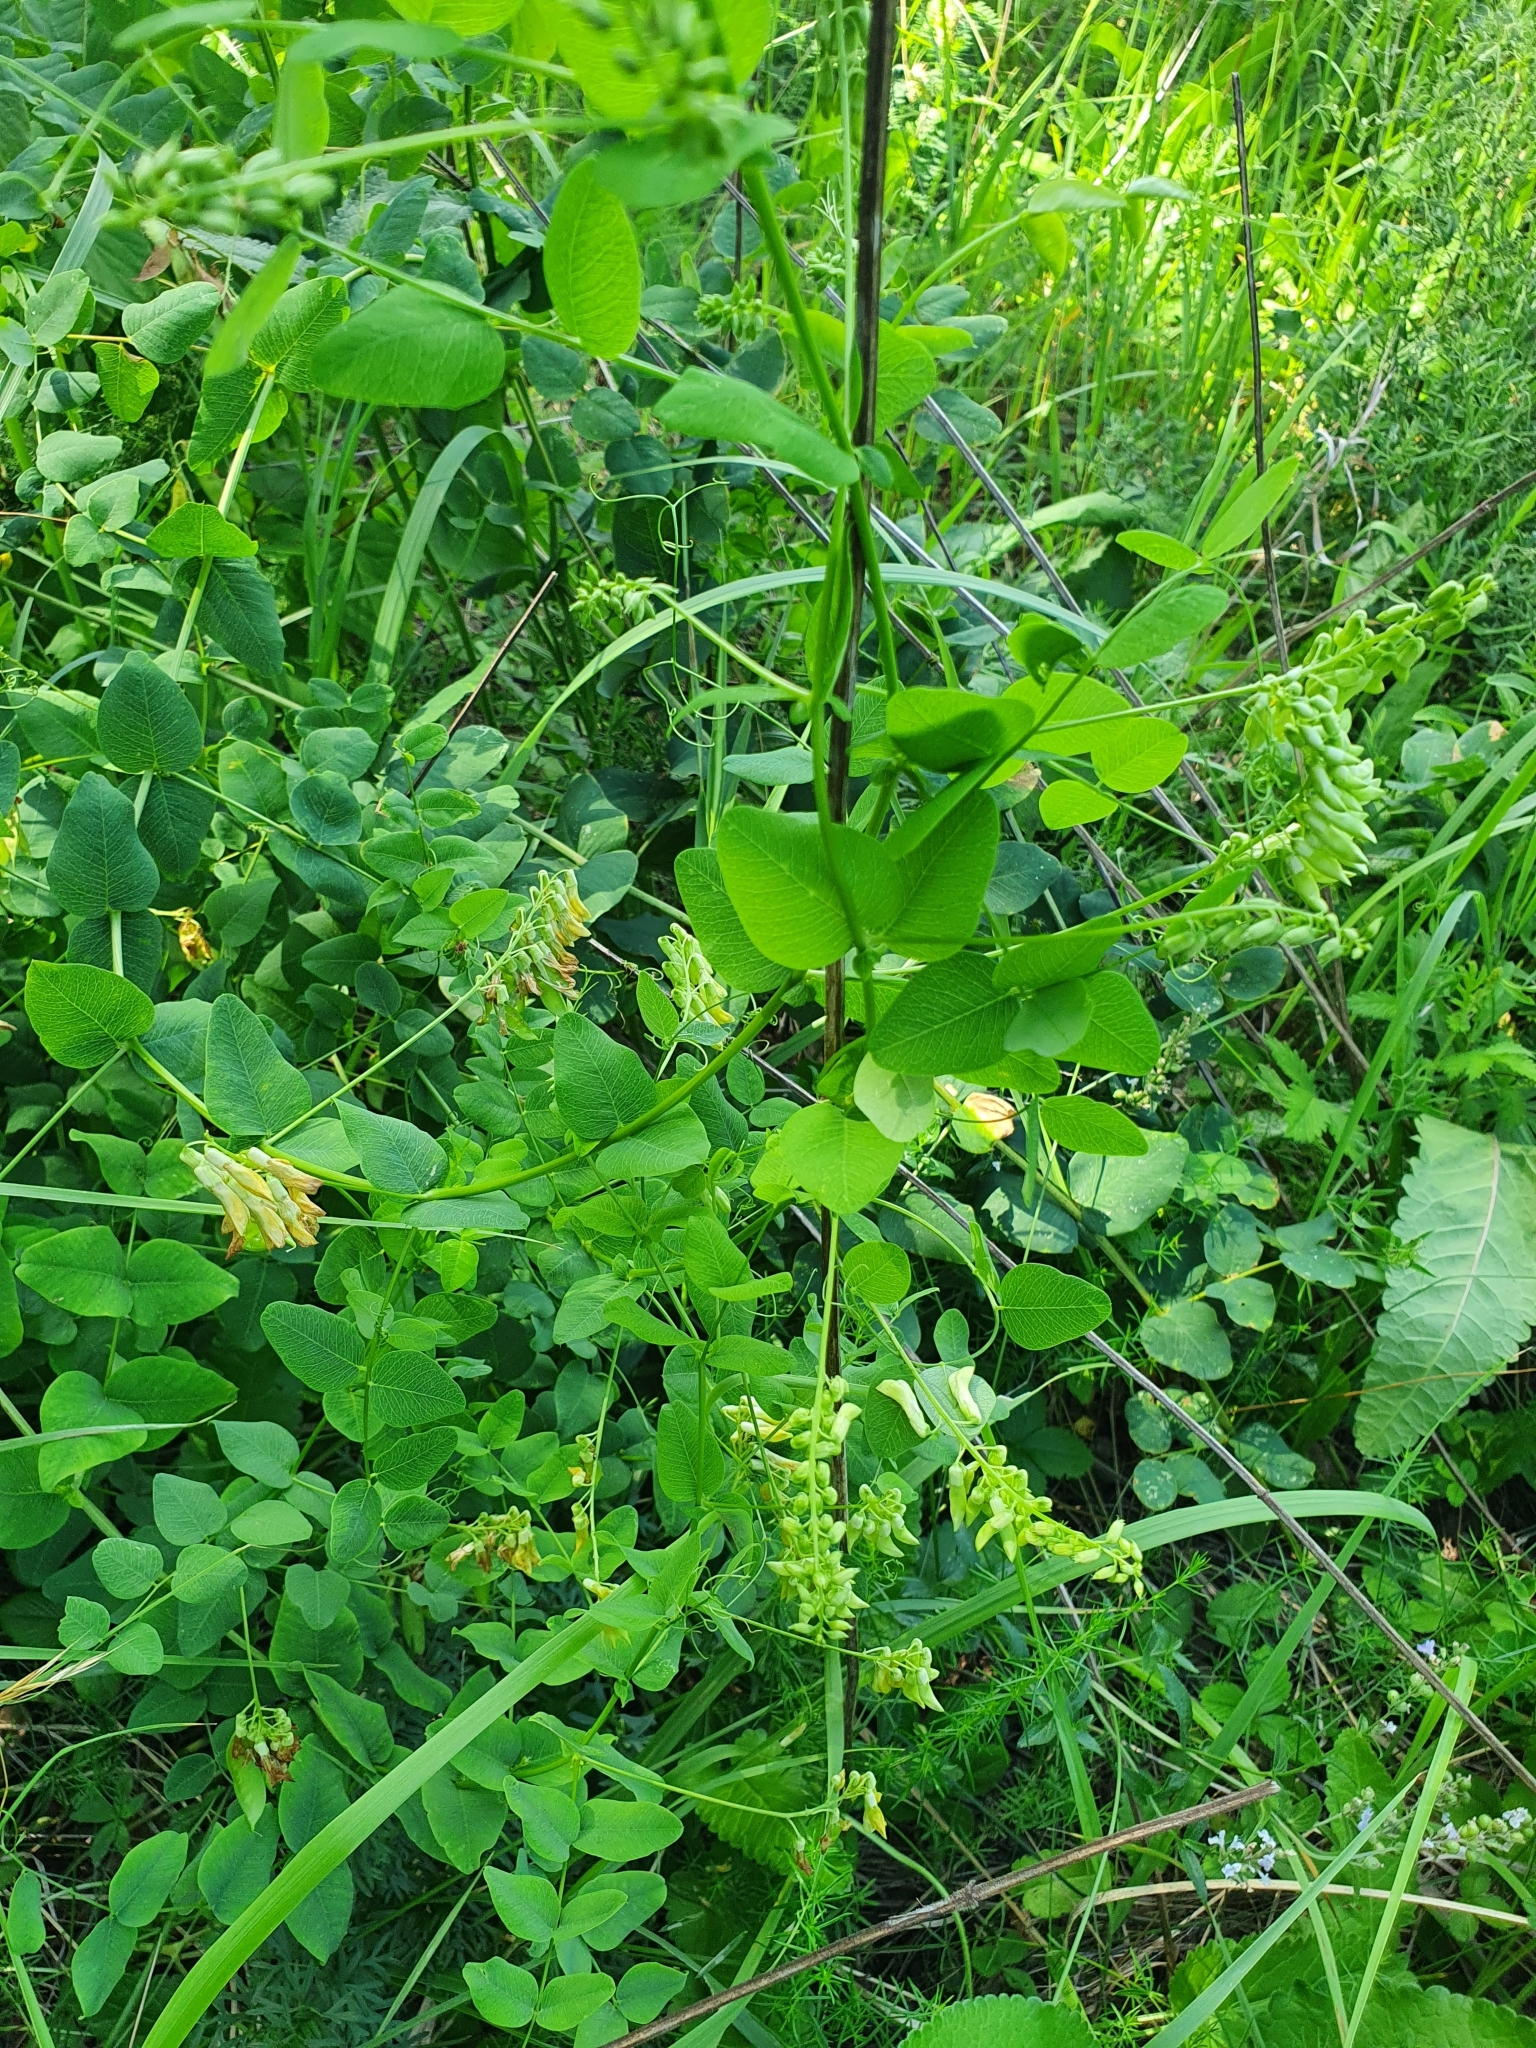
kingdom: Plantae
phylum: Tracheophyta
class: Magnoliopsida
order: Fabales
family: Fabaceae
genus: Vicia
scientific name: Vicia pisiformis
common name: Pale-flower vetch
